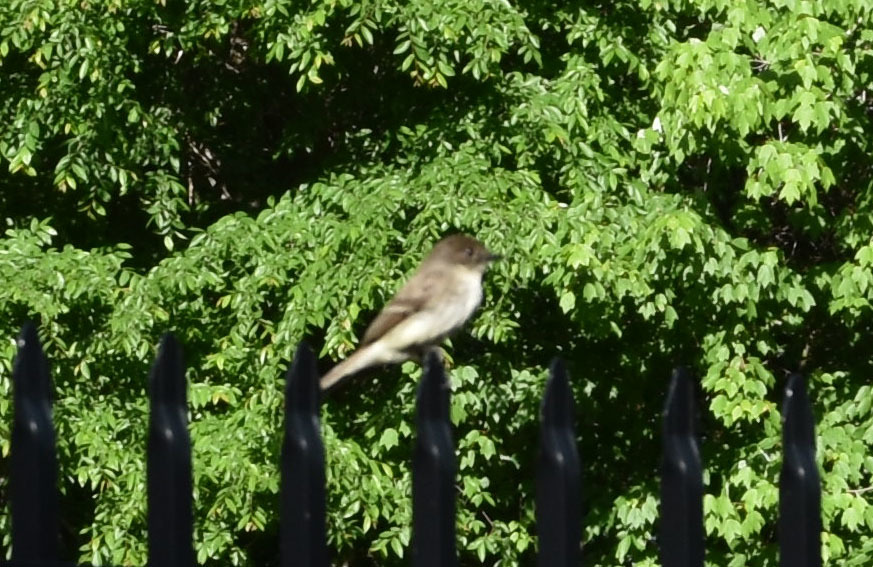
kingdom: Animalia
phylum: Chordata
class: Aves
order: Passeriformes
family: Tyrannidae
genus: Sayornis
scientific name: Sayornis phoebe
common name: Eastern phoebe
